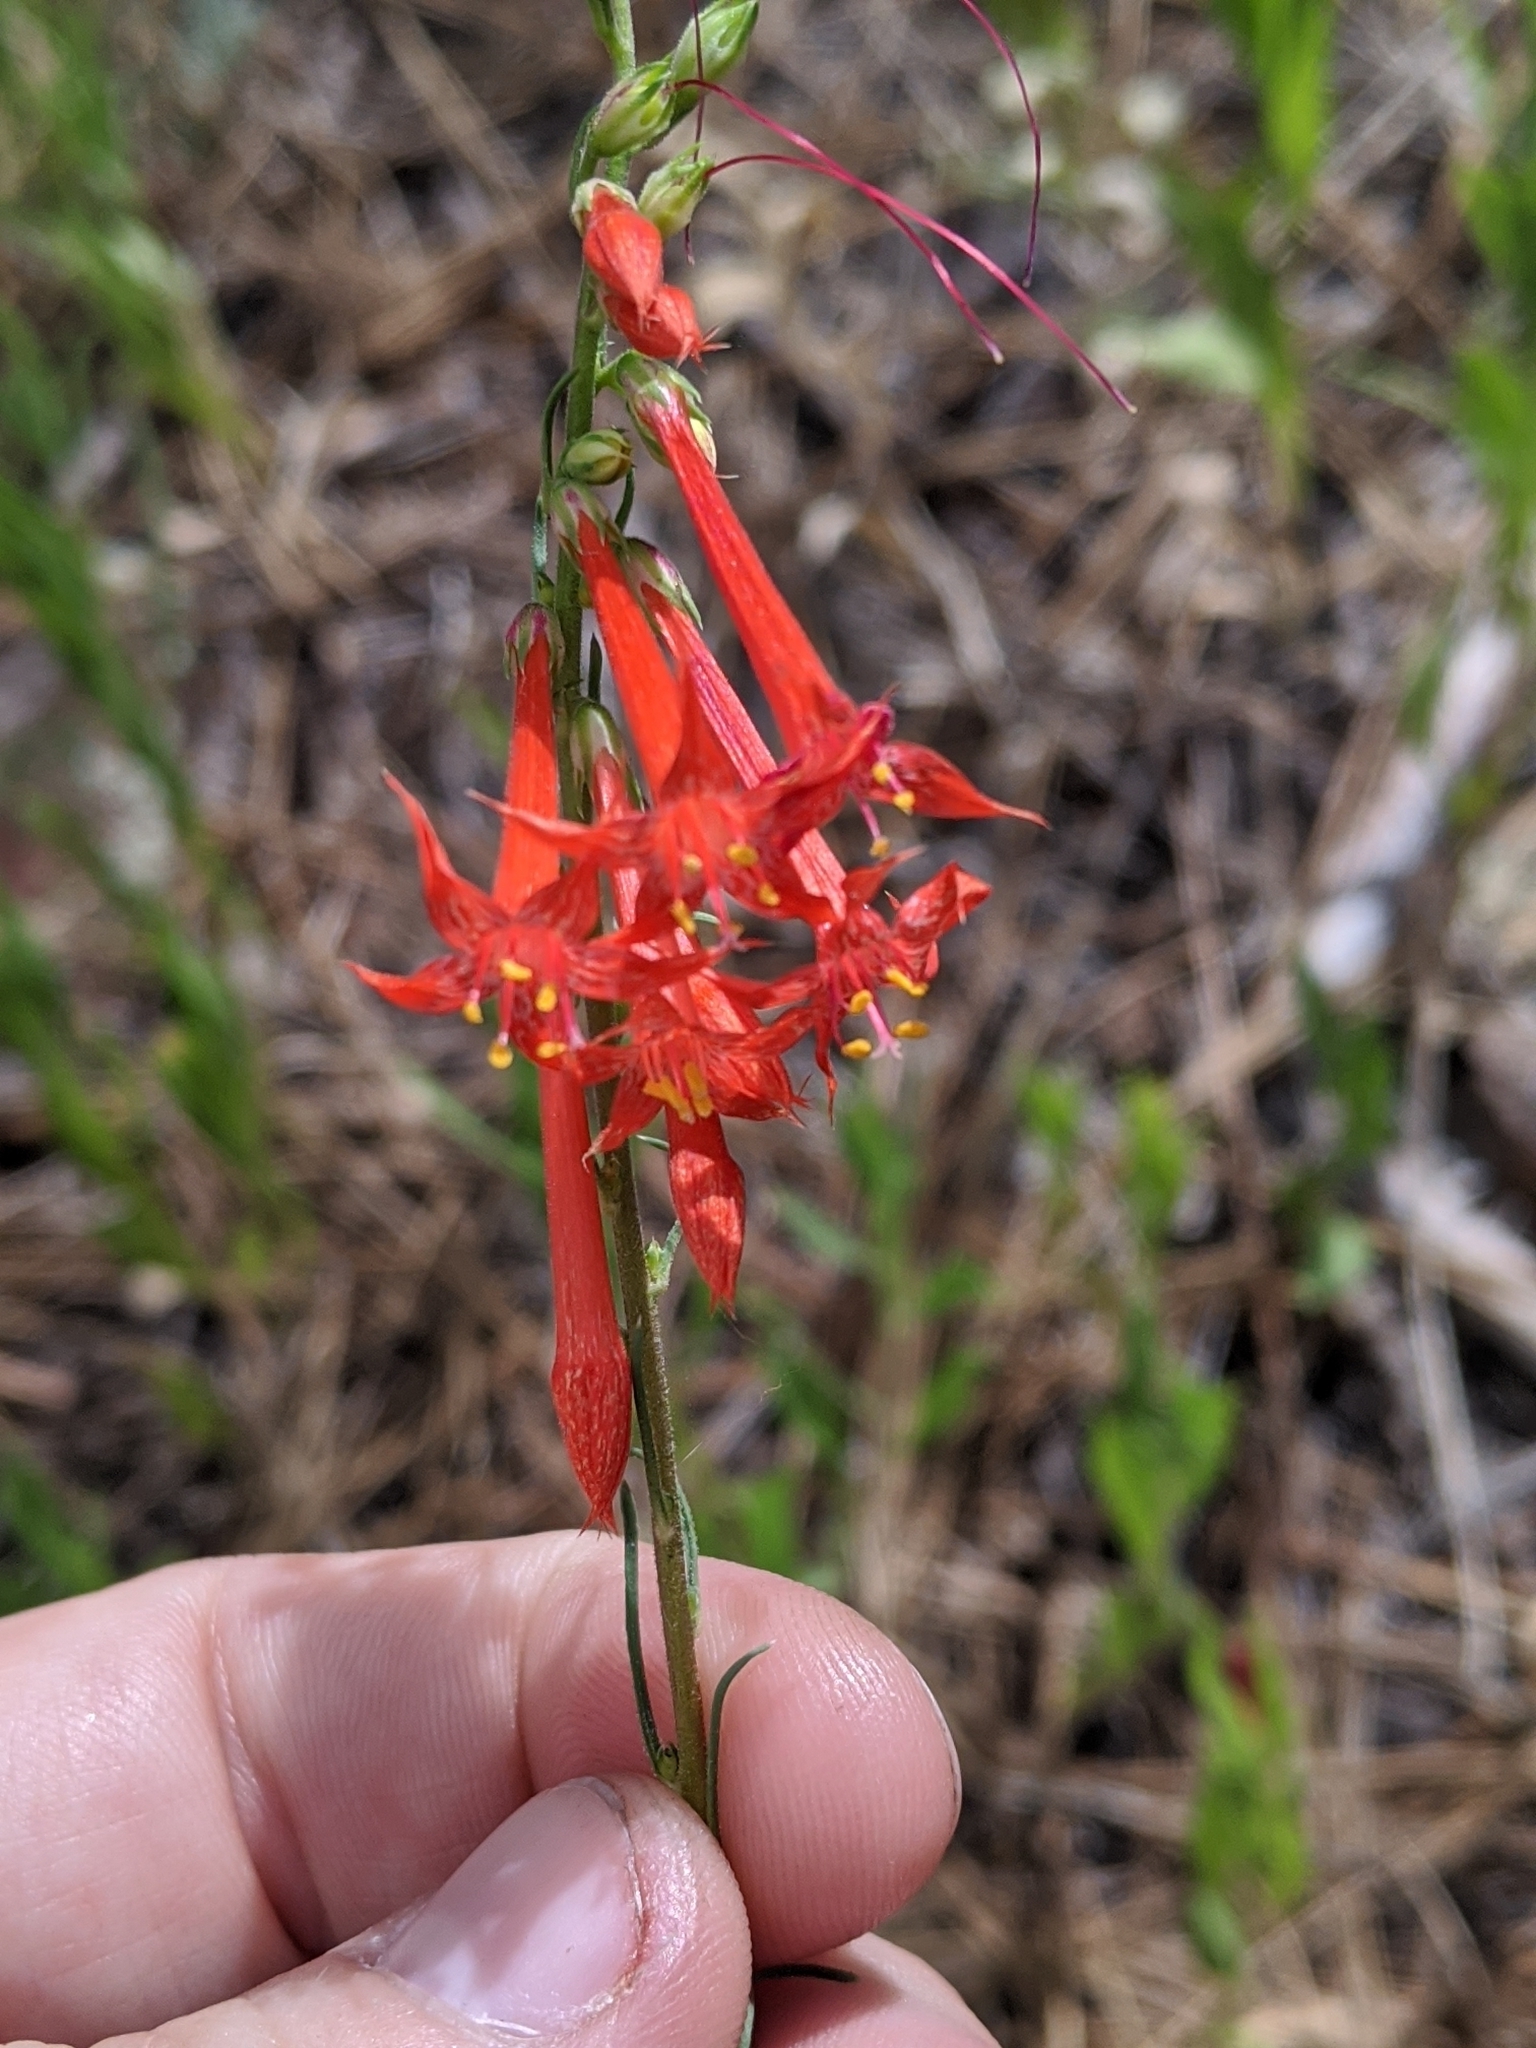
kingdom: Plantae
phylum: Tracheophyta
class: Magnoliopsida
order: Ericales
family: Polemoniaceae
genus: Ipomopsis
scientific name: Ipomopsis aggregata
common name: Scarlet gilia
